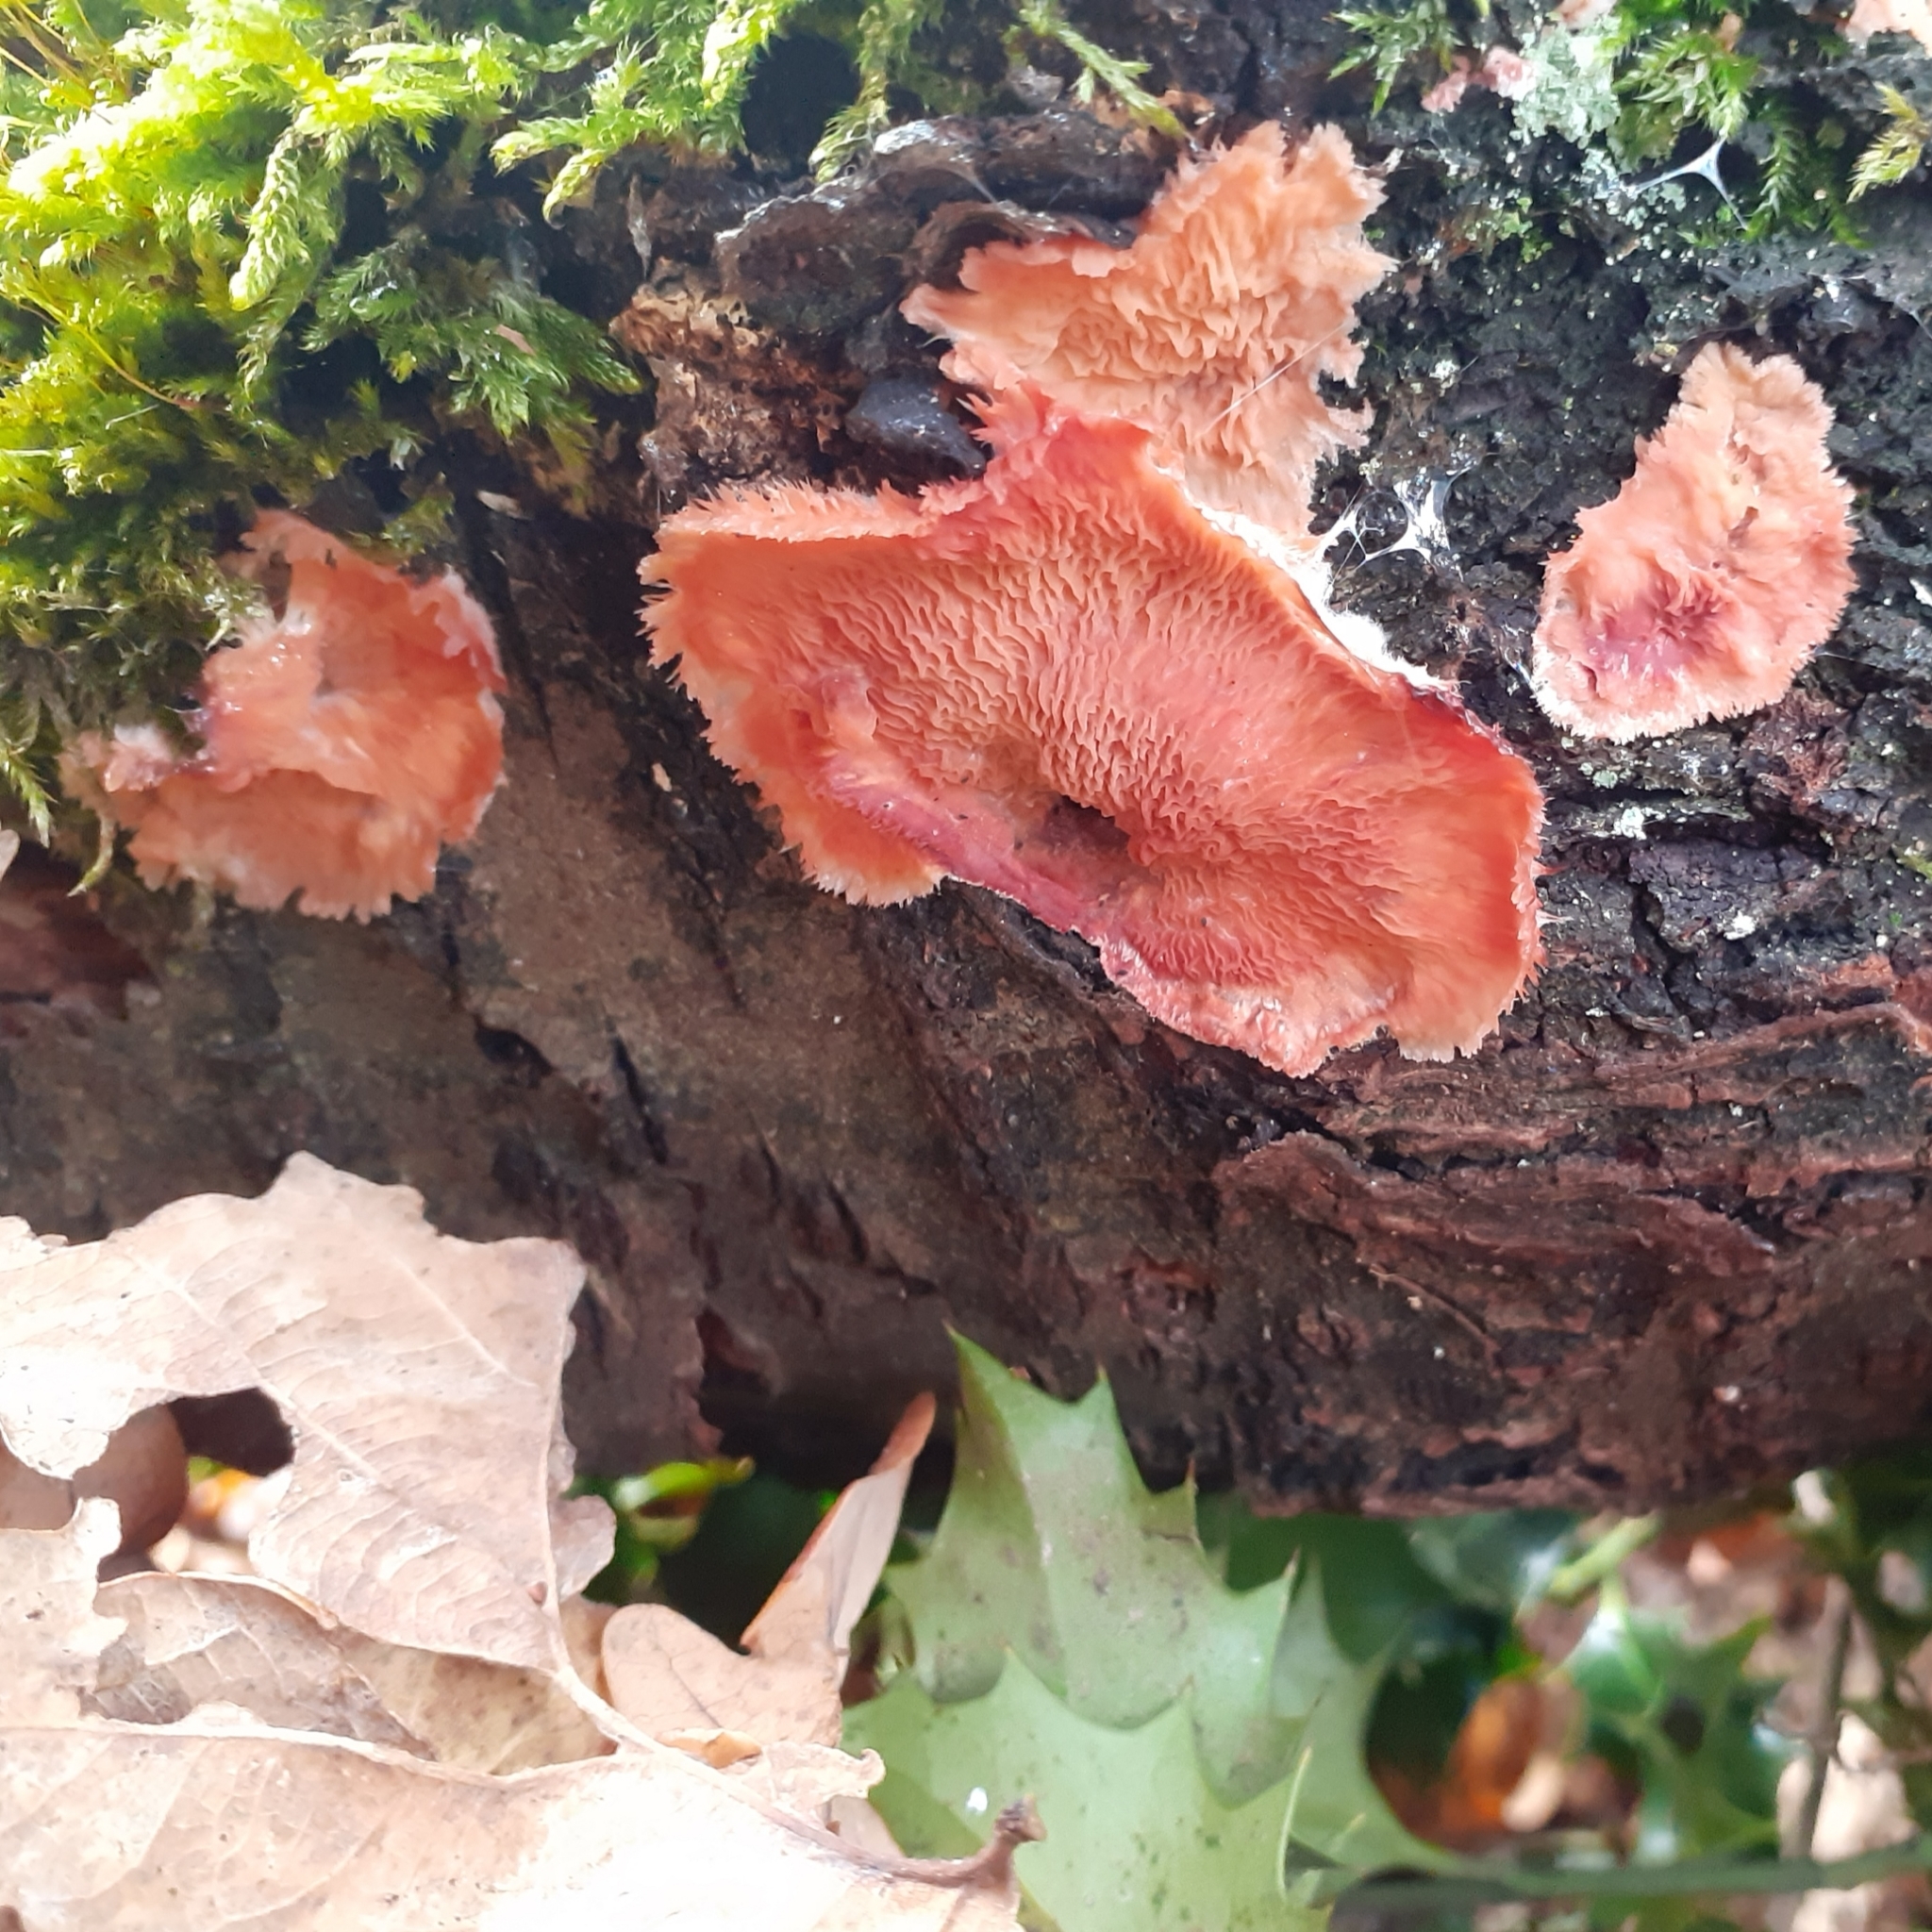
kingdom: Fungi
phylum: Basidiomycota
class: Agaricomycetes
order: Polyporales
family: Meruliaceae
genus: Phlebia
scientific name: Phlebia tremellosa
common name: Jelly rot
